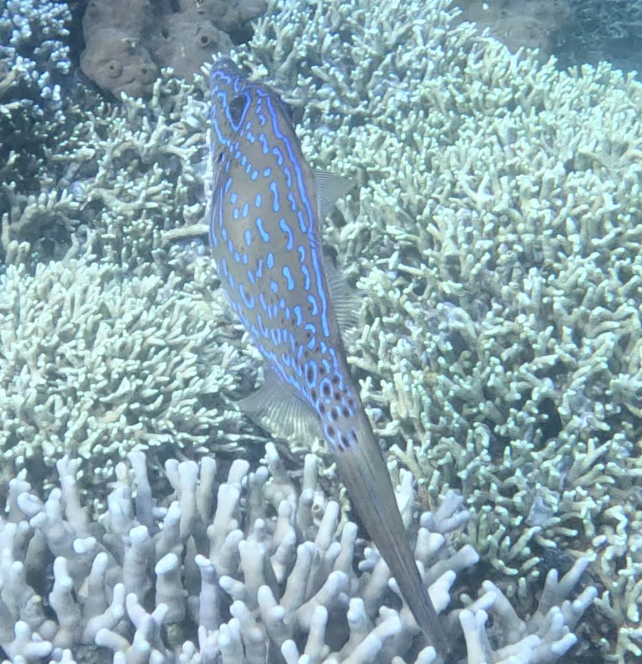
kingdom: Animalia
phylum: Chordata
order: Tetraodontiformes
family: Monacanthidae
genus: Aluterus
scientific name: Aluterus scriptus
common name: Scribbled leatherjacket filefish
